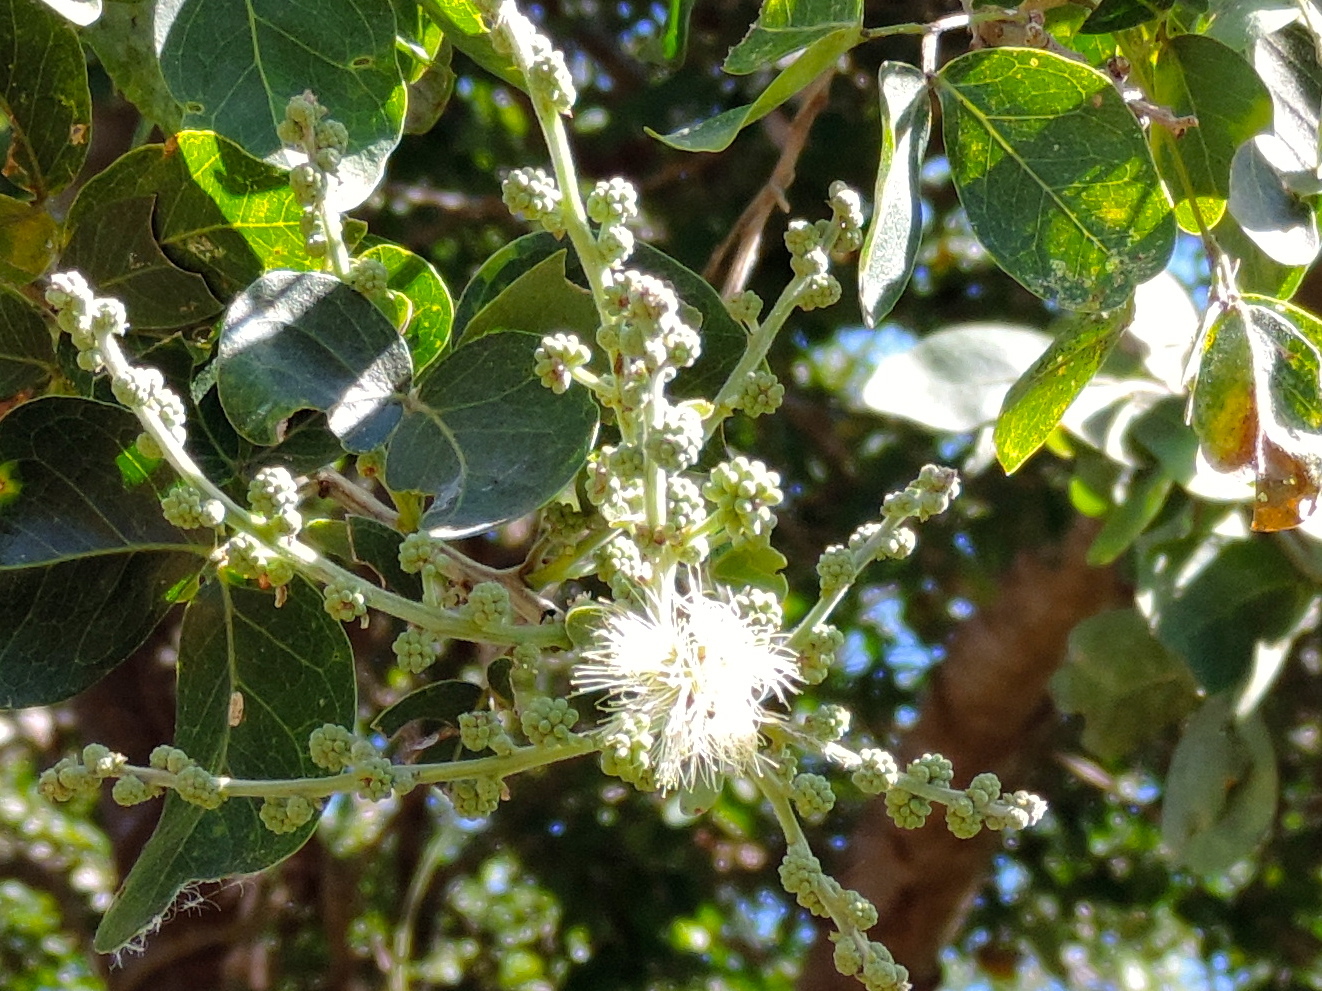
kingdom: Plantae
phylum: Tracheophyta
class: Magnoliopsida
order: Fabales
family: Fabaceae
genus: Pithecellobium
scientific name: Pithecellobium lanceolatum
